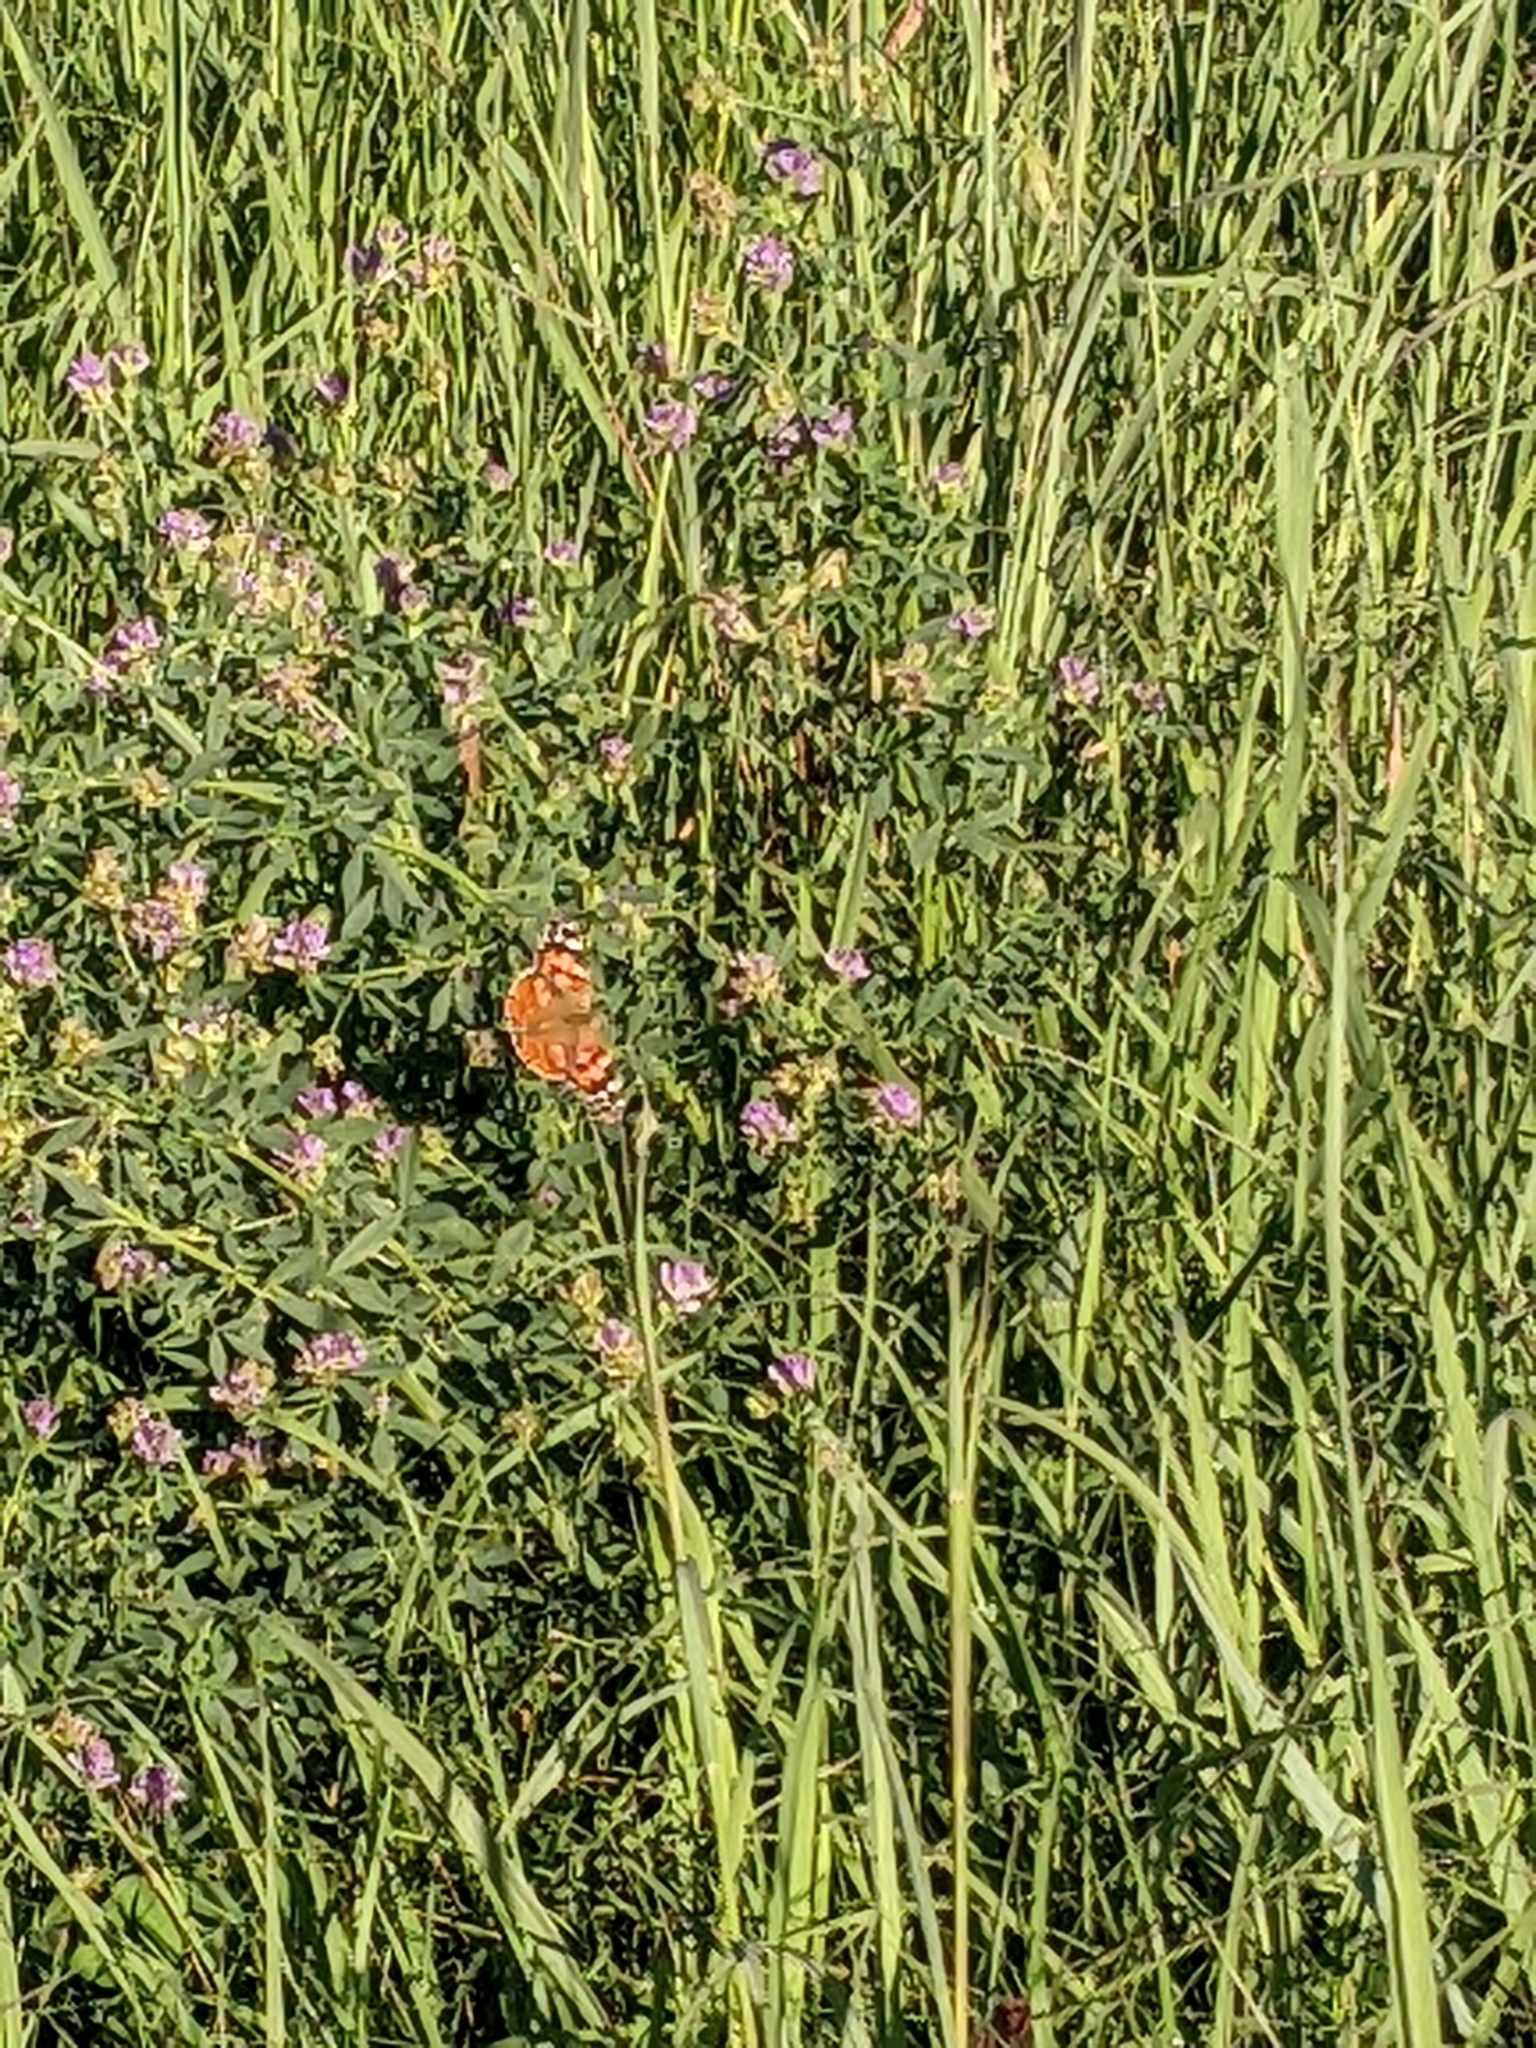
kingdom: Animalia
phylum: Arthropoda
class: Insecta
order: Lepidoptera
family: Nymphalidae
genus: Vanessa
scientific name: Vanessa cardui
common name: Painted lady
